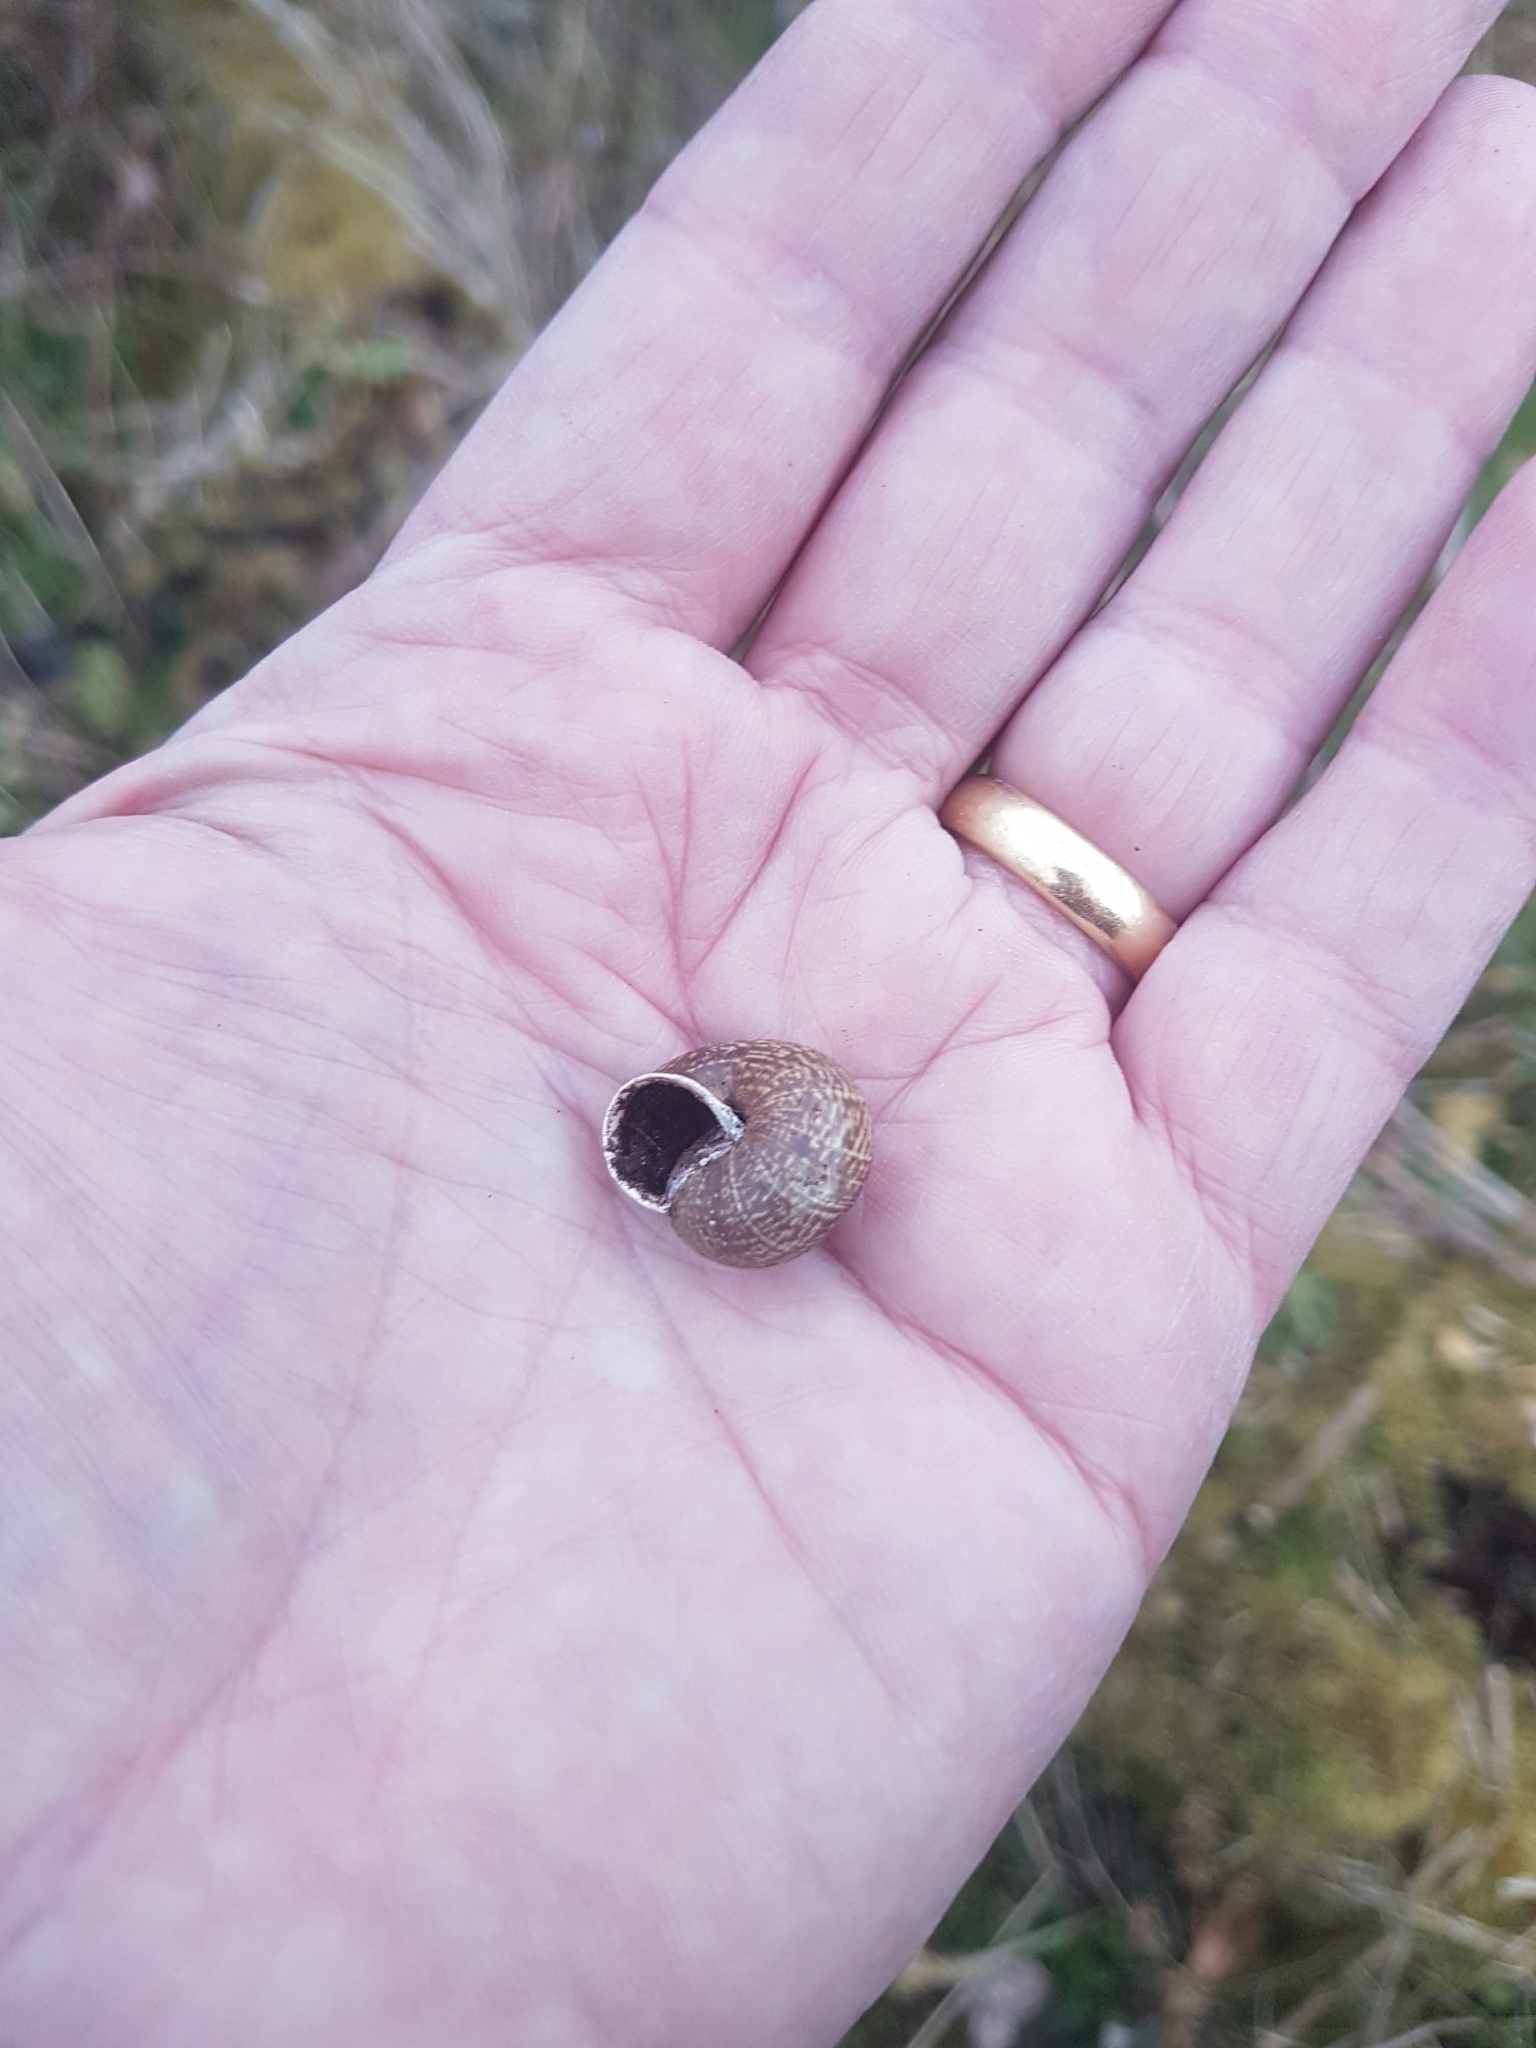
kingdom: Animalia
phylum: Mollusca
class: Gastropoda
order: Stylommatophora
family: Helicidae
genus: Arianta
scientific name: Arianta arbustorum
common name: Copse snail
